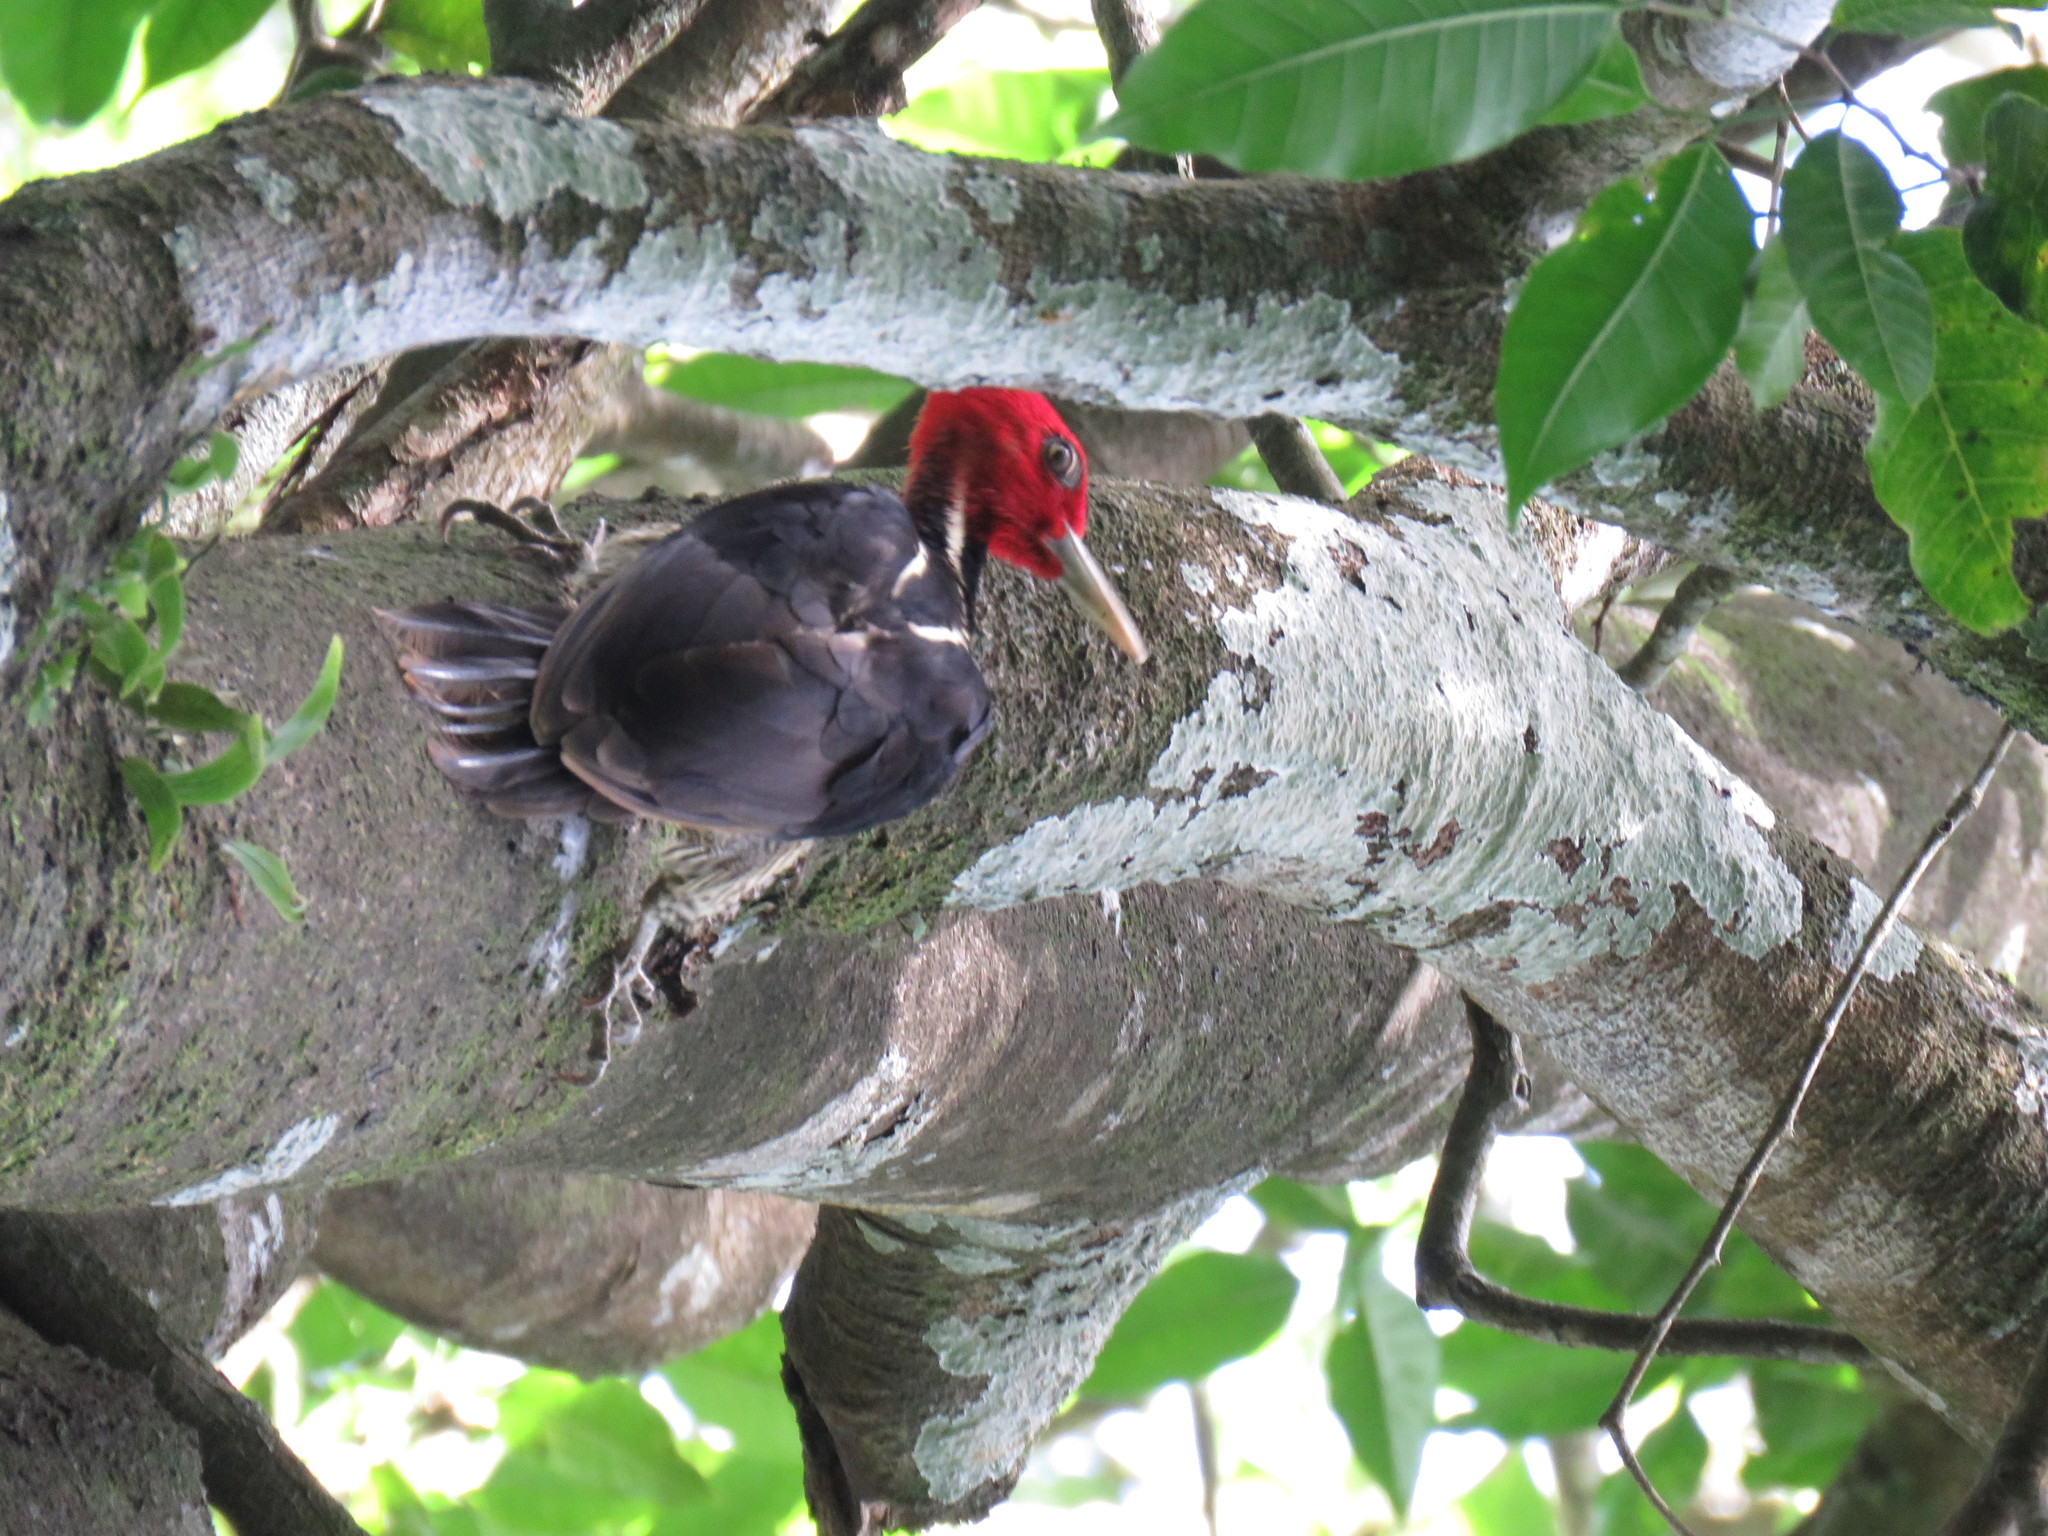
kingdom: Animalia
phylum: Chordata
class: Aves
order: Piciformes
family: Picidae
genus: Campephilus
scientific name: Campephilus guatemalensis
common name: Pale-billed woodpecker
